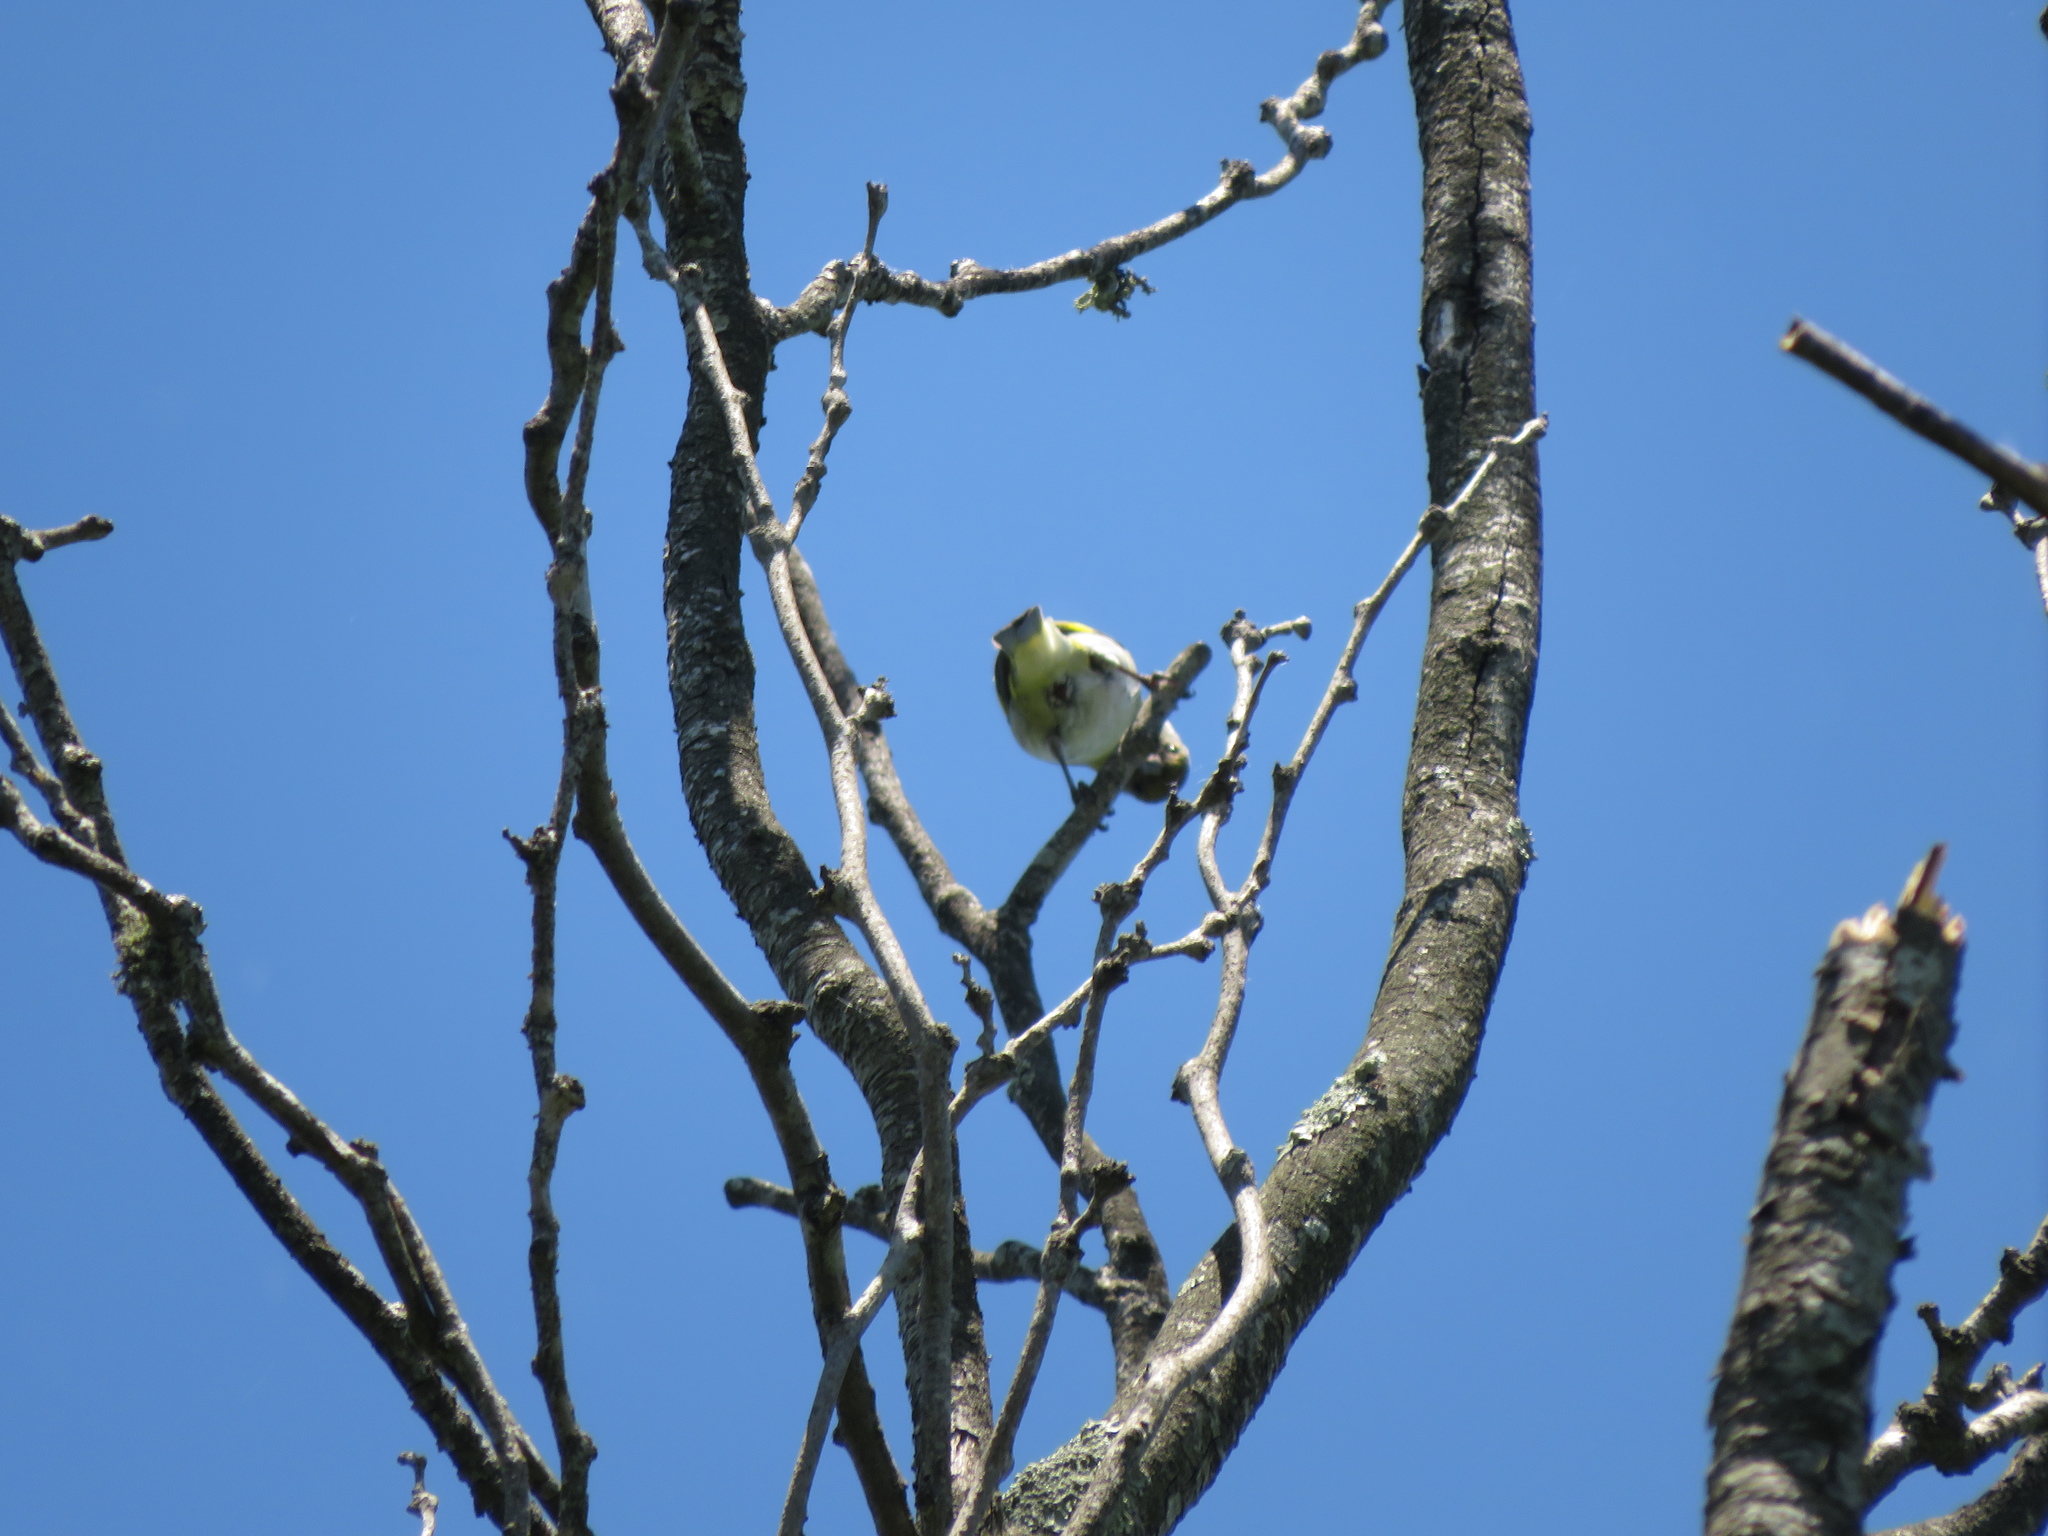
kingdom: Animalia
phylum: Chordata
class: Aves
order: Passeriformes
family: Fringillidae
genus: Spinus
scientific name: Spinus magellanicus
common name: Hooded siskin
